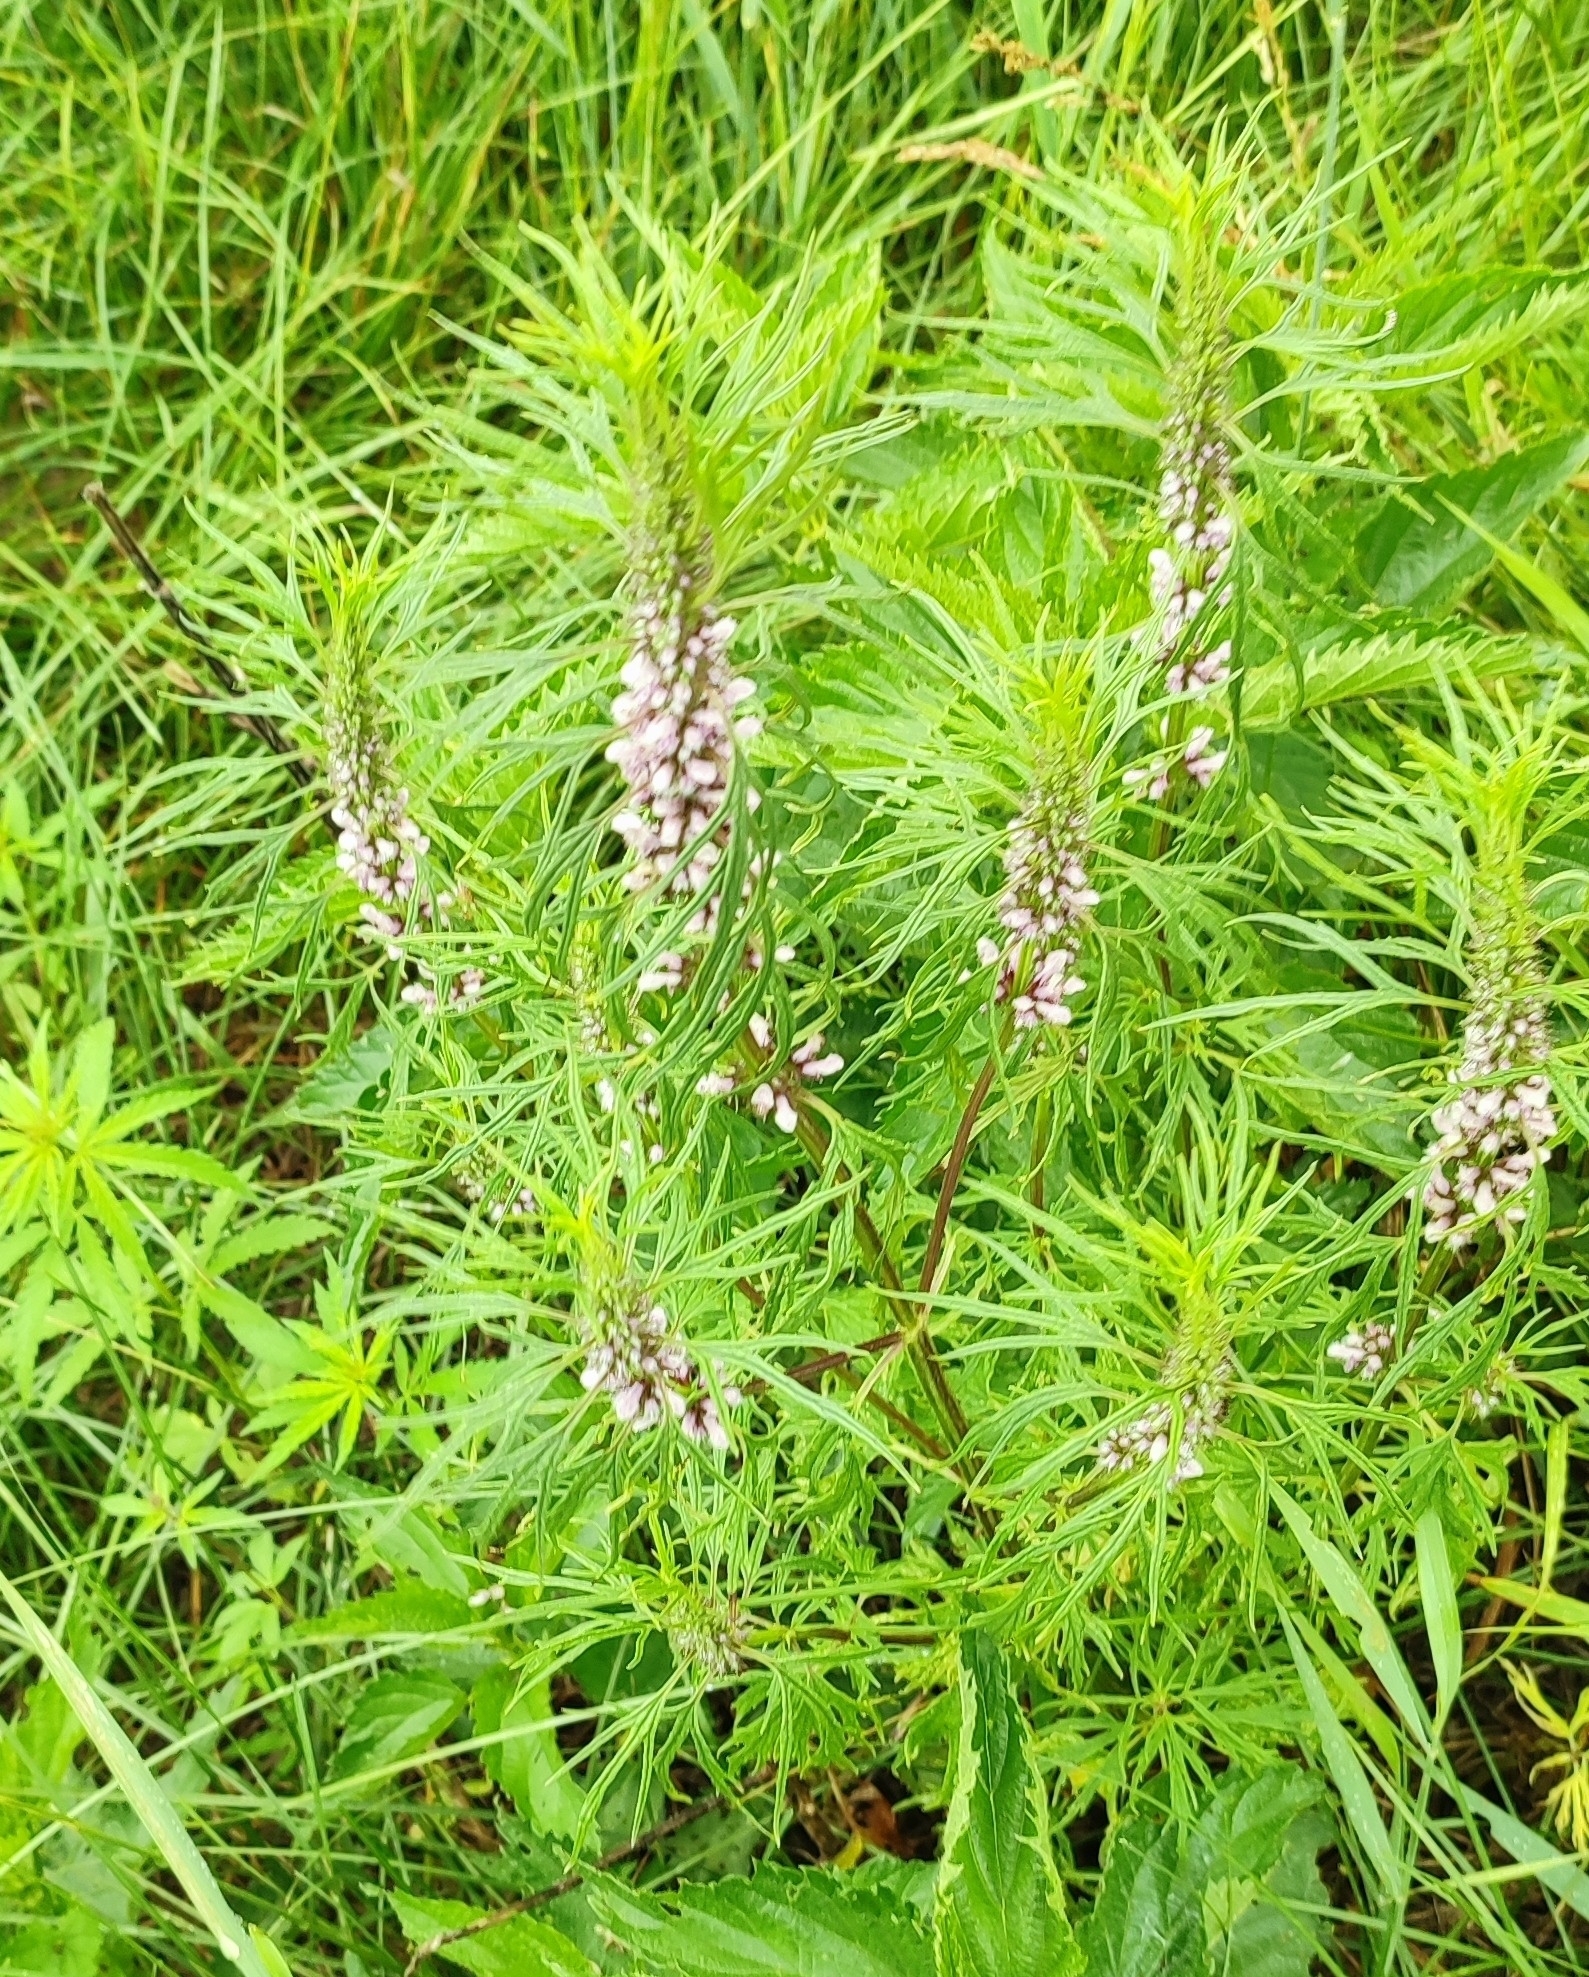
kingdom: Plantae
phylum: Tracheophyta
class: Magnoliopsida
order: Lamiales
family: Lamiaceae
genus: Leonurus
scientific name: Leonurus glaucescens
